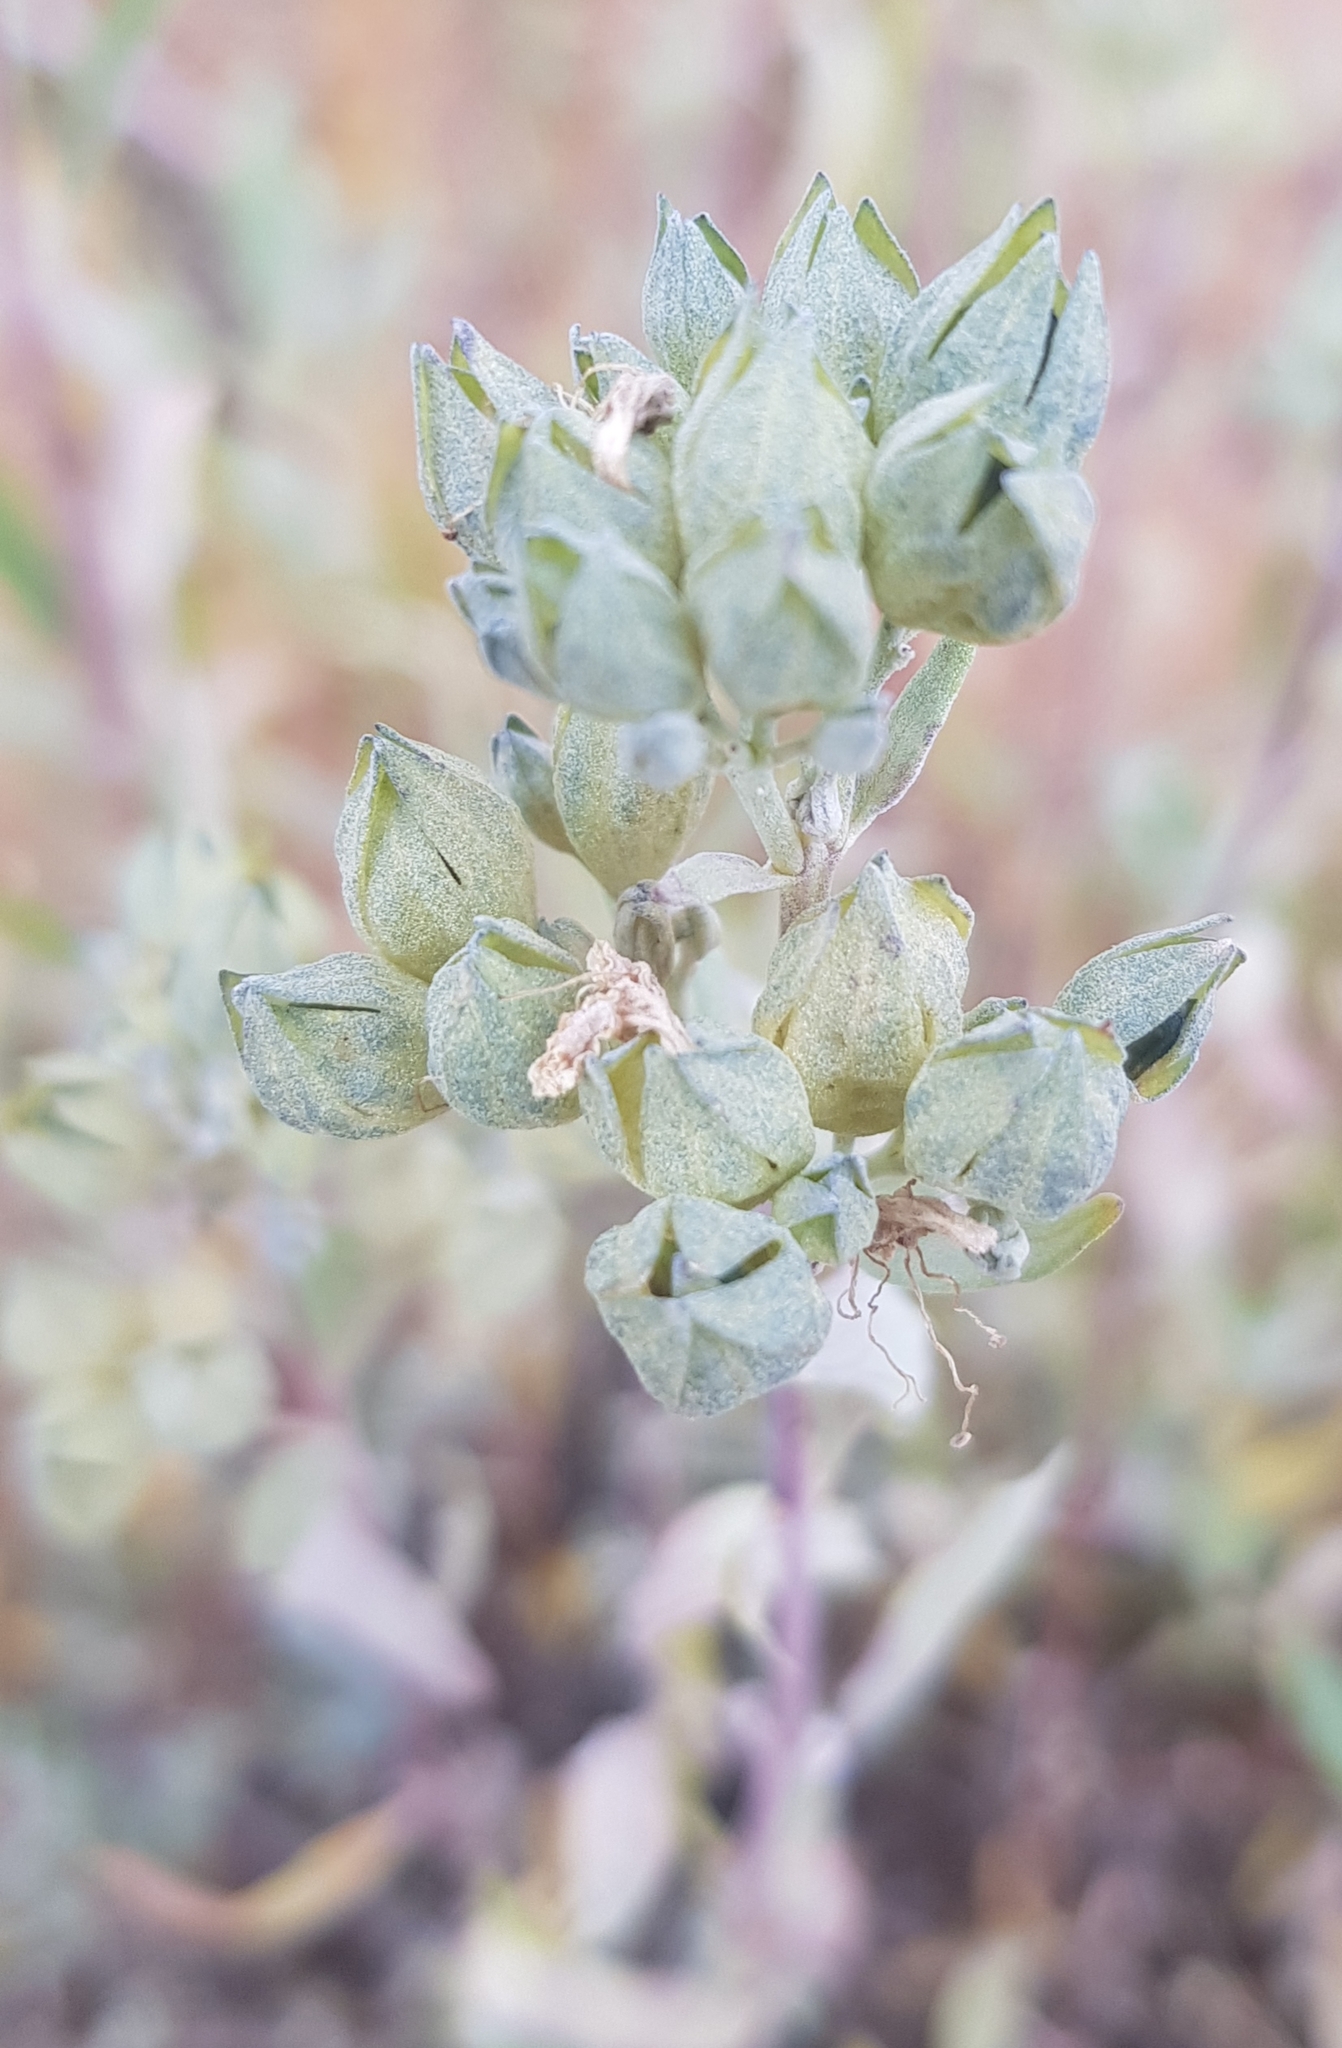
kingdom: Plantae
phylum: Tracheophyta
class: Magnoliopsida
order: Lamiales
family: Lamiaceae
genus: Caryopteris
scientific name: Caryopteris mongholica
